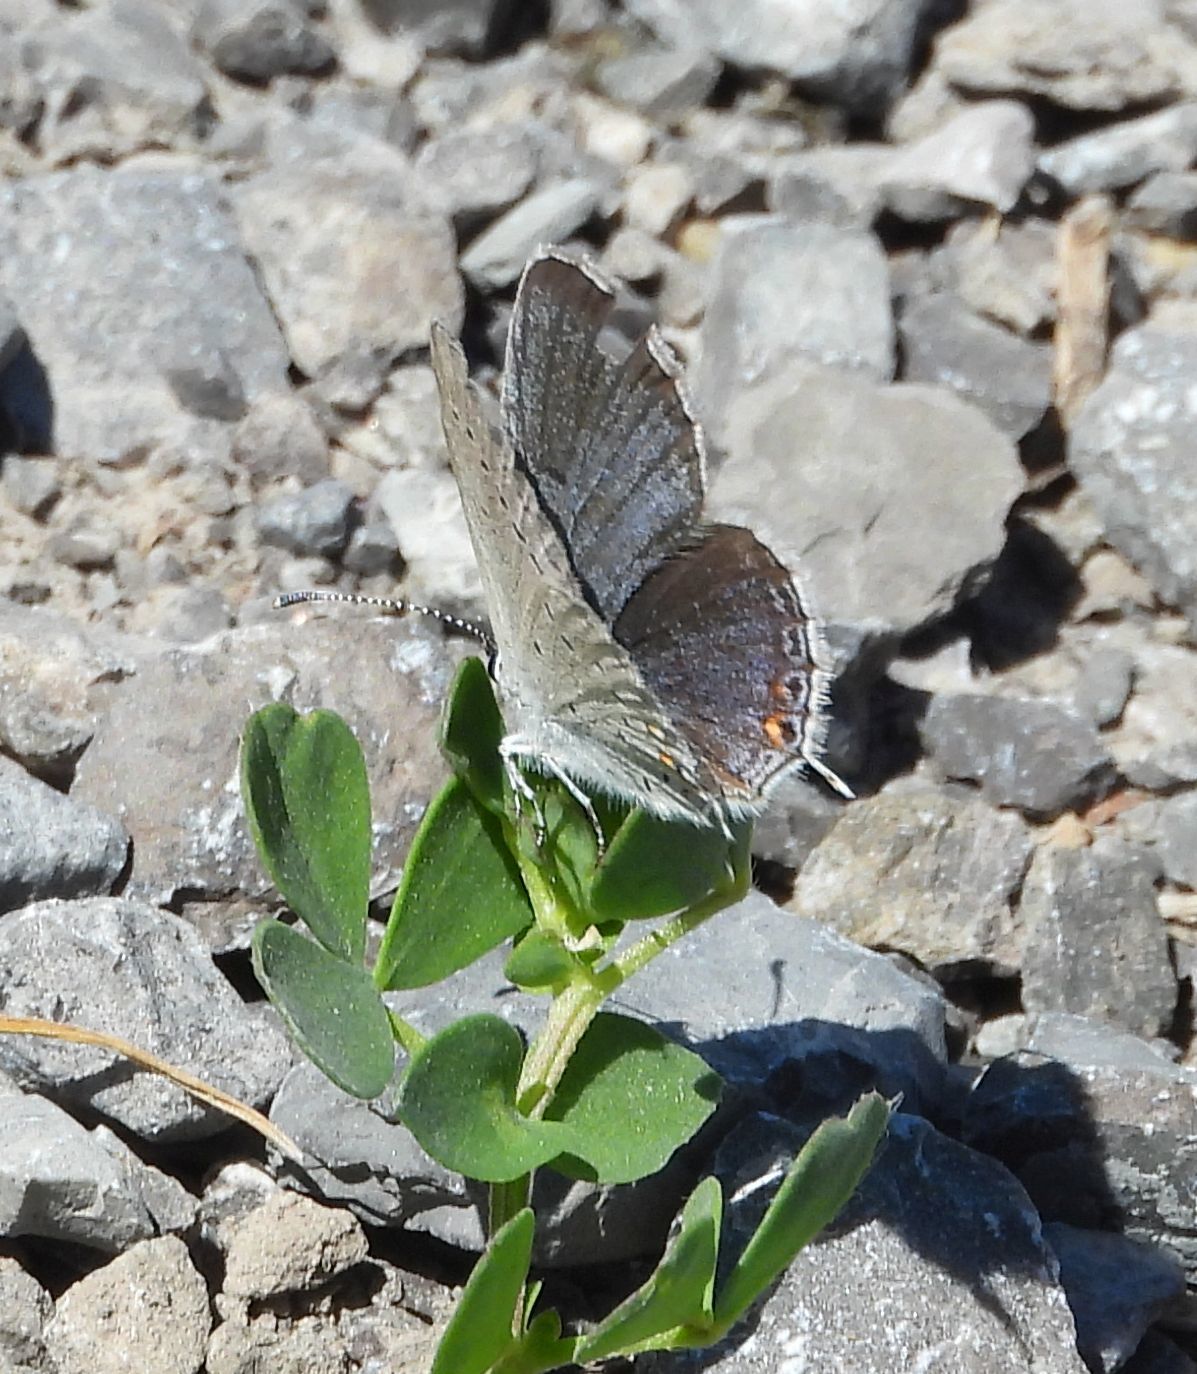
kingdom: Animalia
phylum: Arthropoda
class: Insecta
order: Lepidoptera
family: Lycaenidae
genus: Elkalyce
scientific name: Elkalyce comyntas
